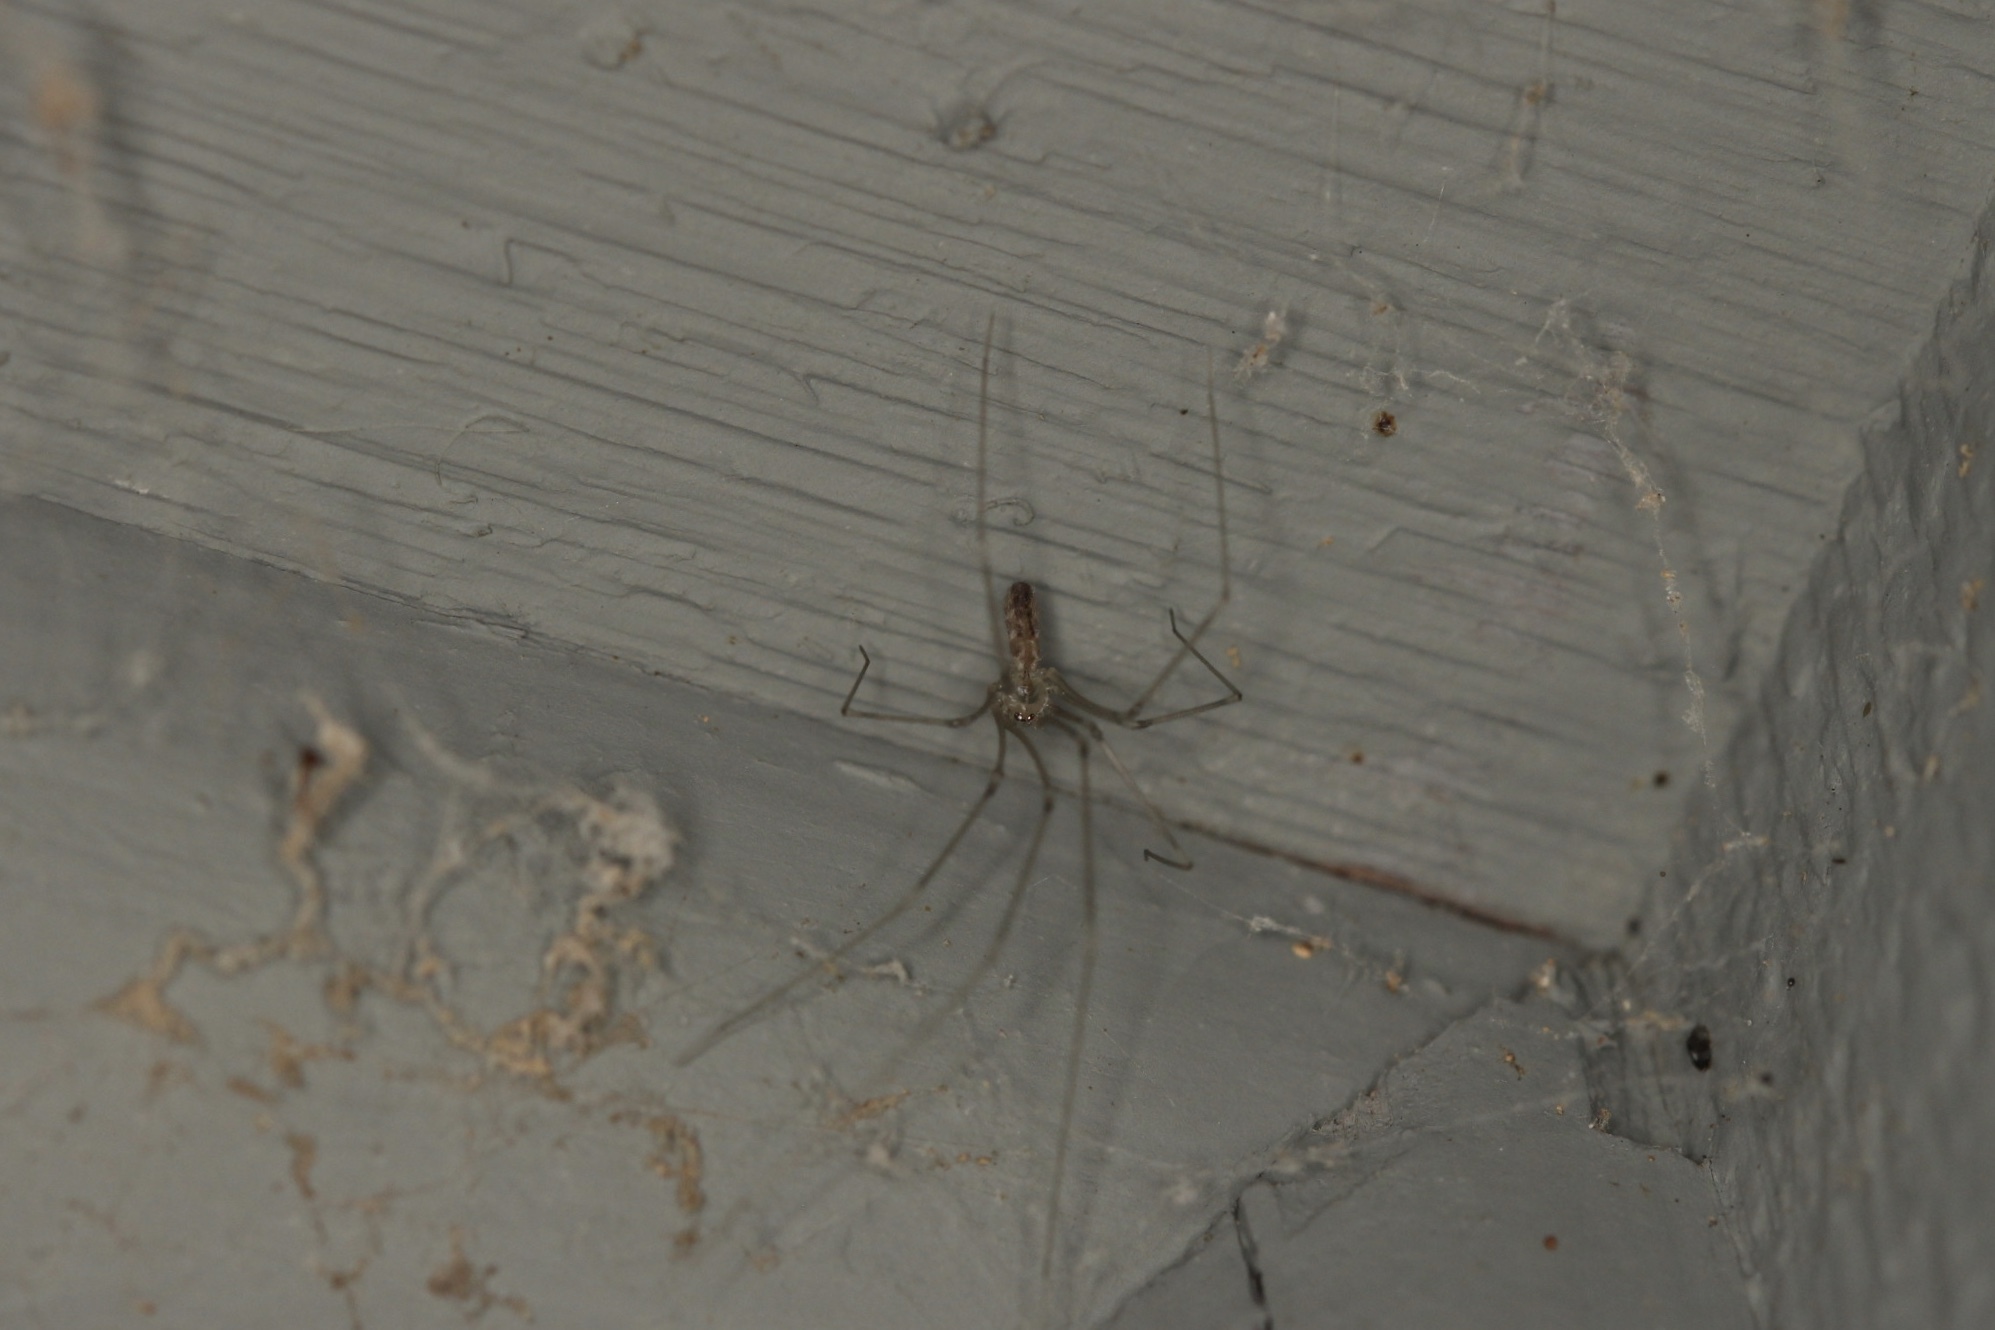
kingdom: Animalia
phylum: Arthropoda
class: Arachnida
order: Araneae
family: Pholcidae
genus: Pholcus
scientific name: Pholcus phalangioides
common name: Longbodied cellar spider
